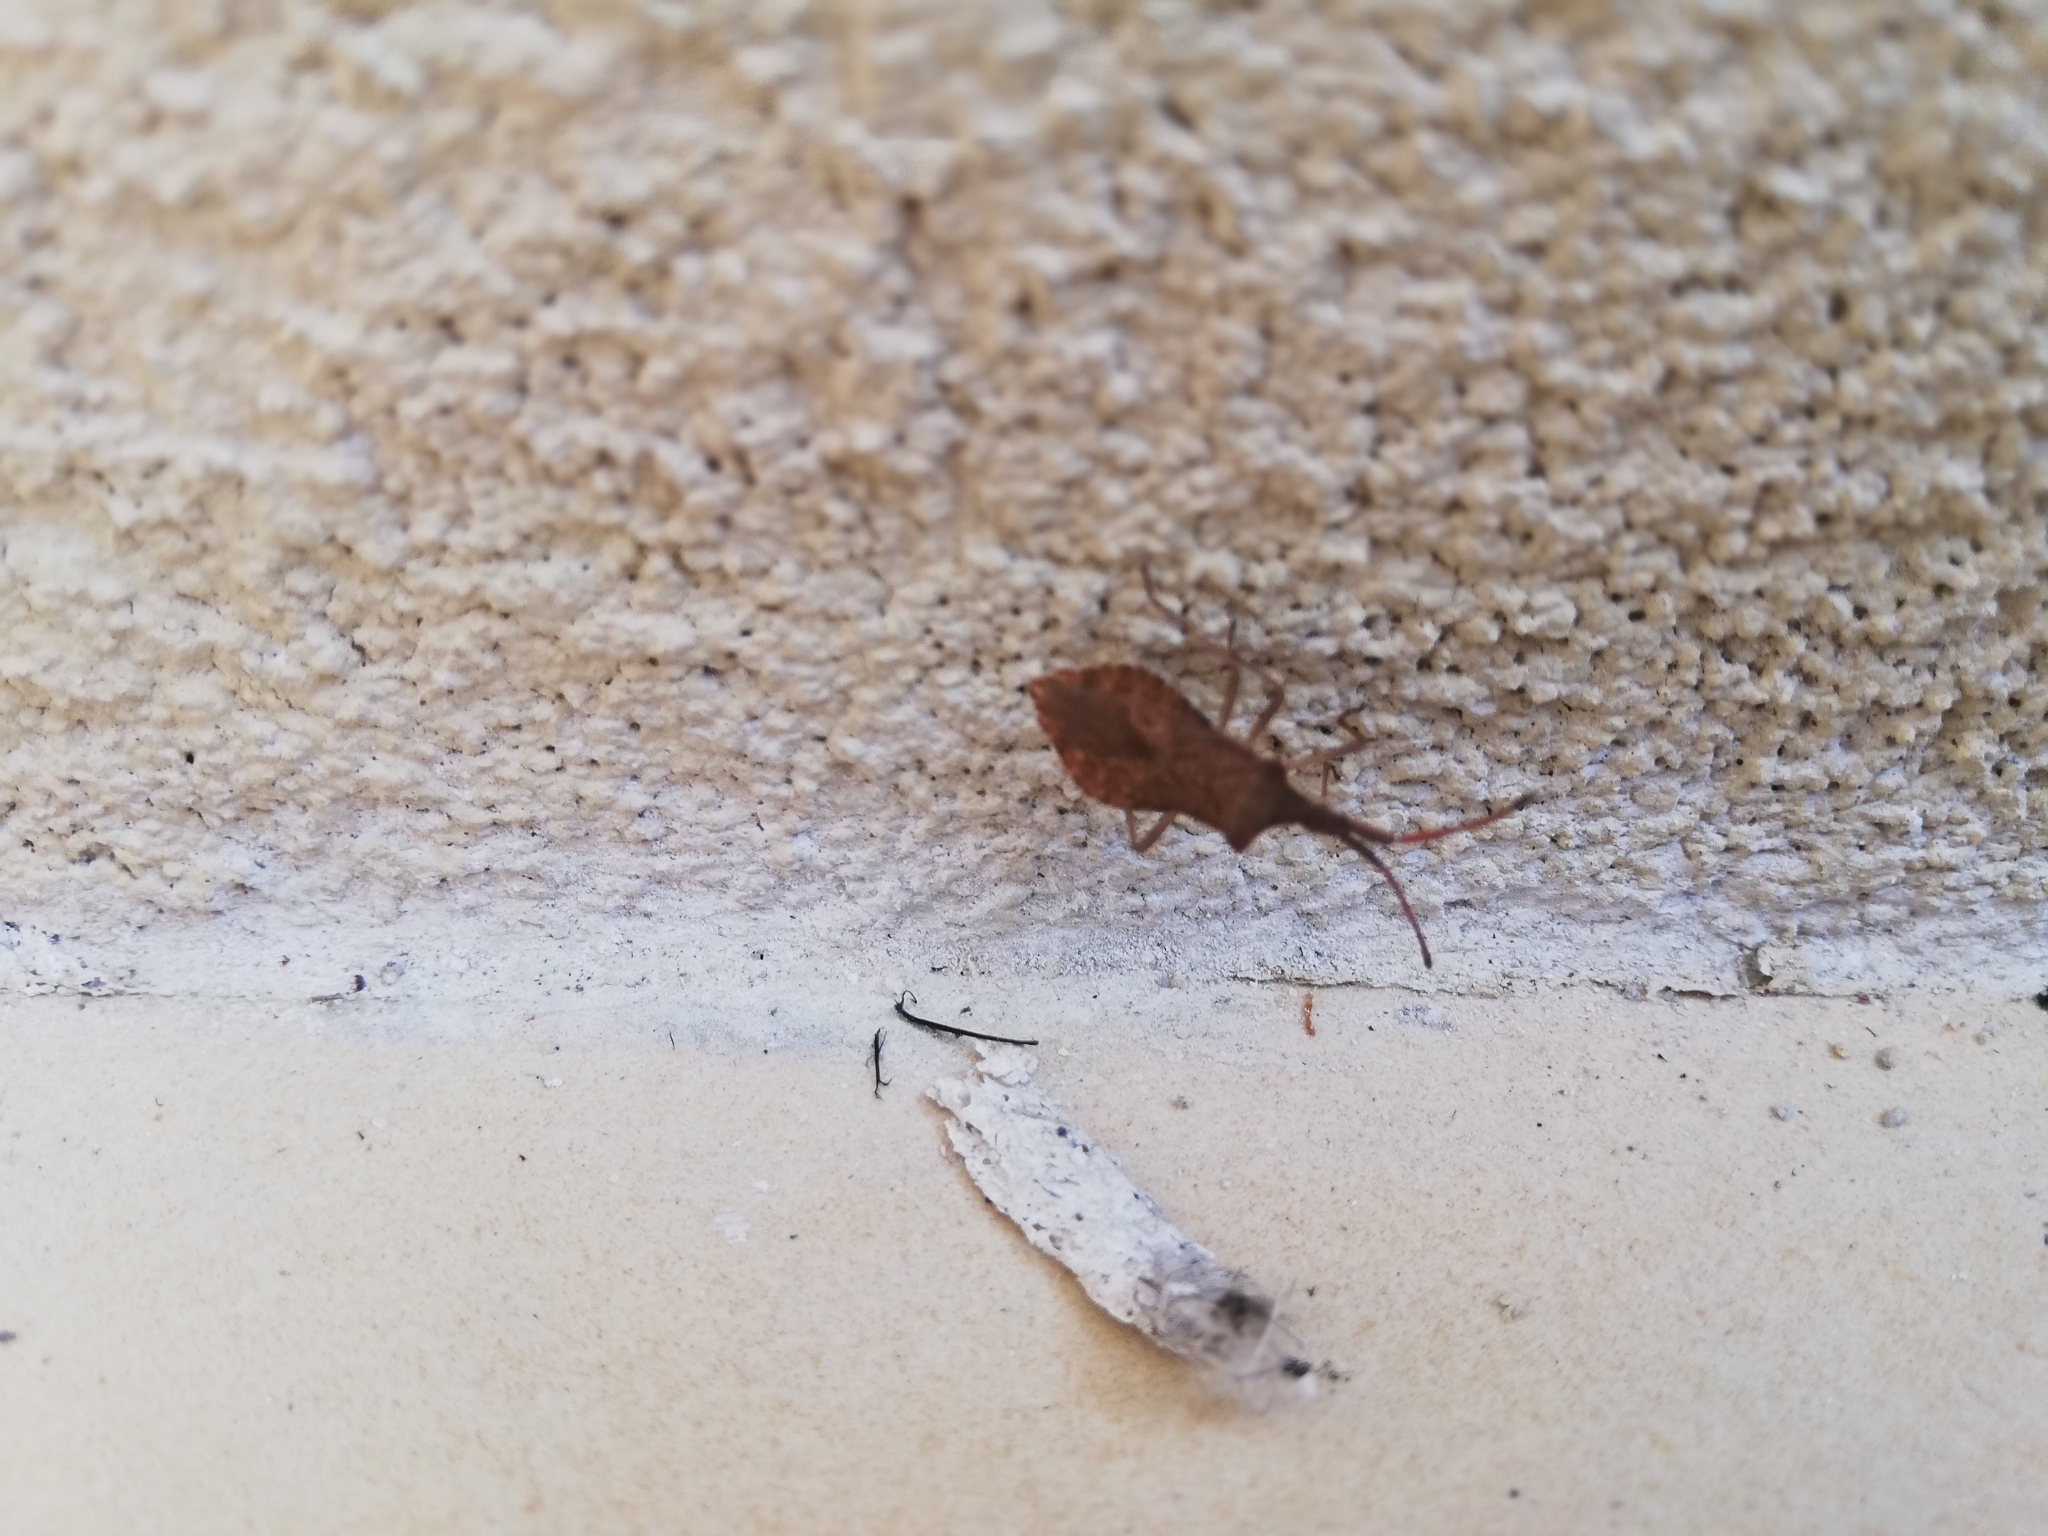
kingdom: Animalia
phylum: Arthropoda
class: Insecta
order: Hemiptera
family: Coreidae
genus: Haploprocta
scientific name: Haploprocta sulcicornis
